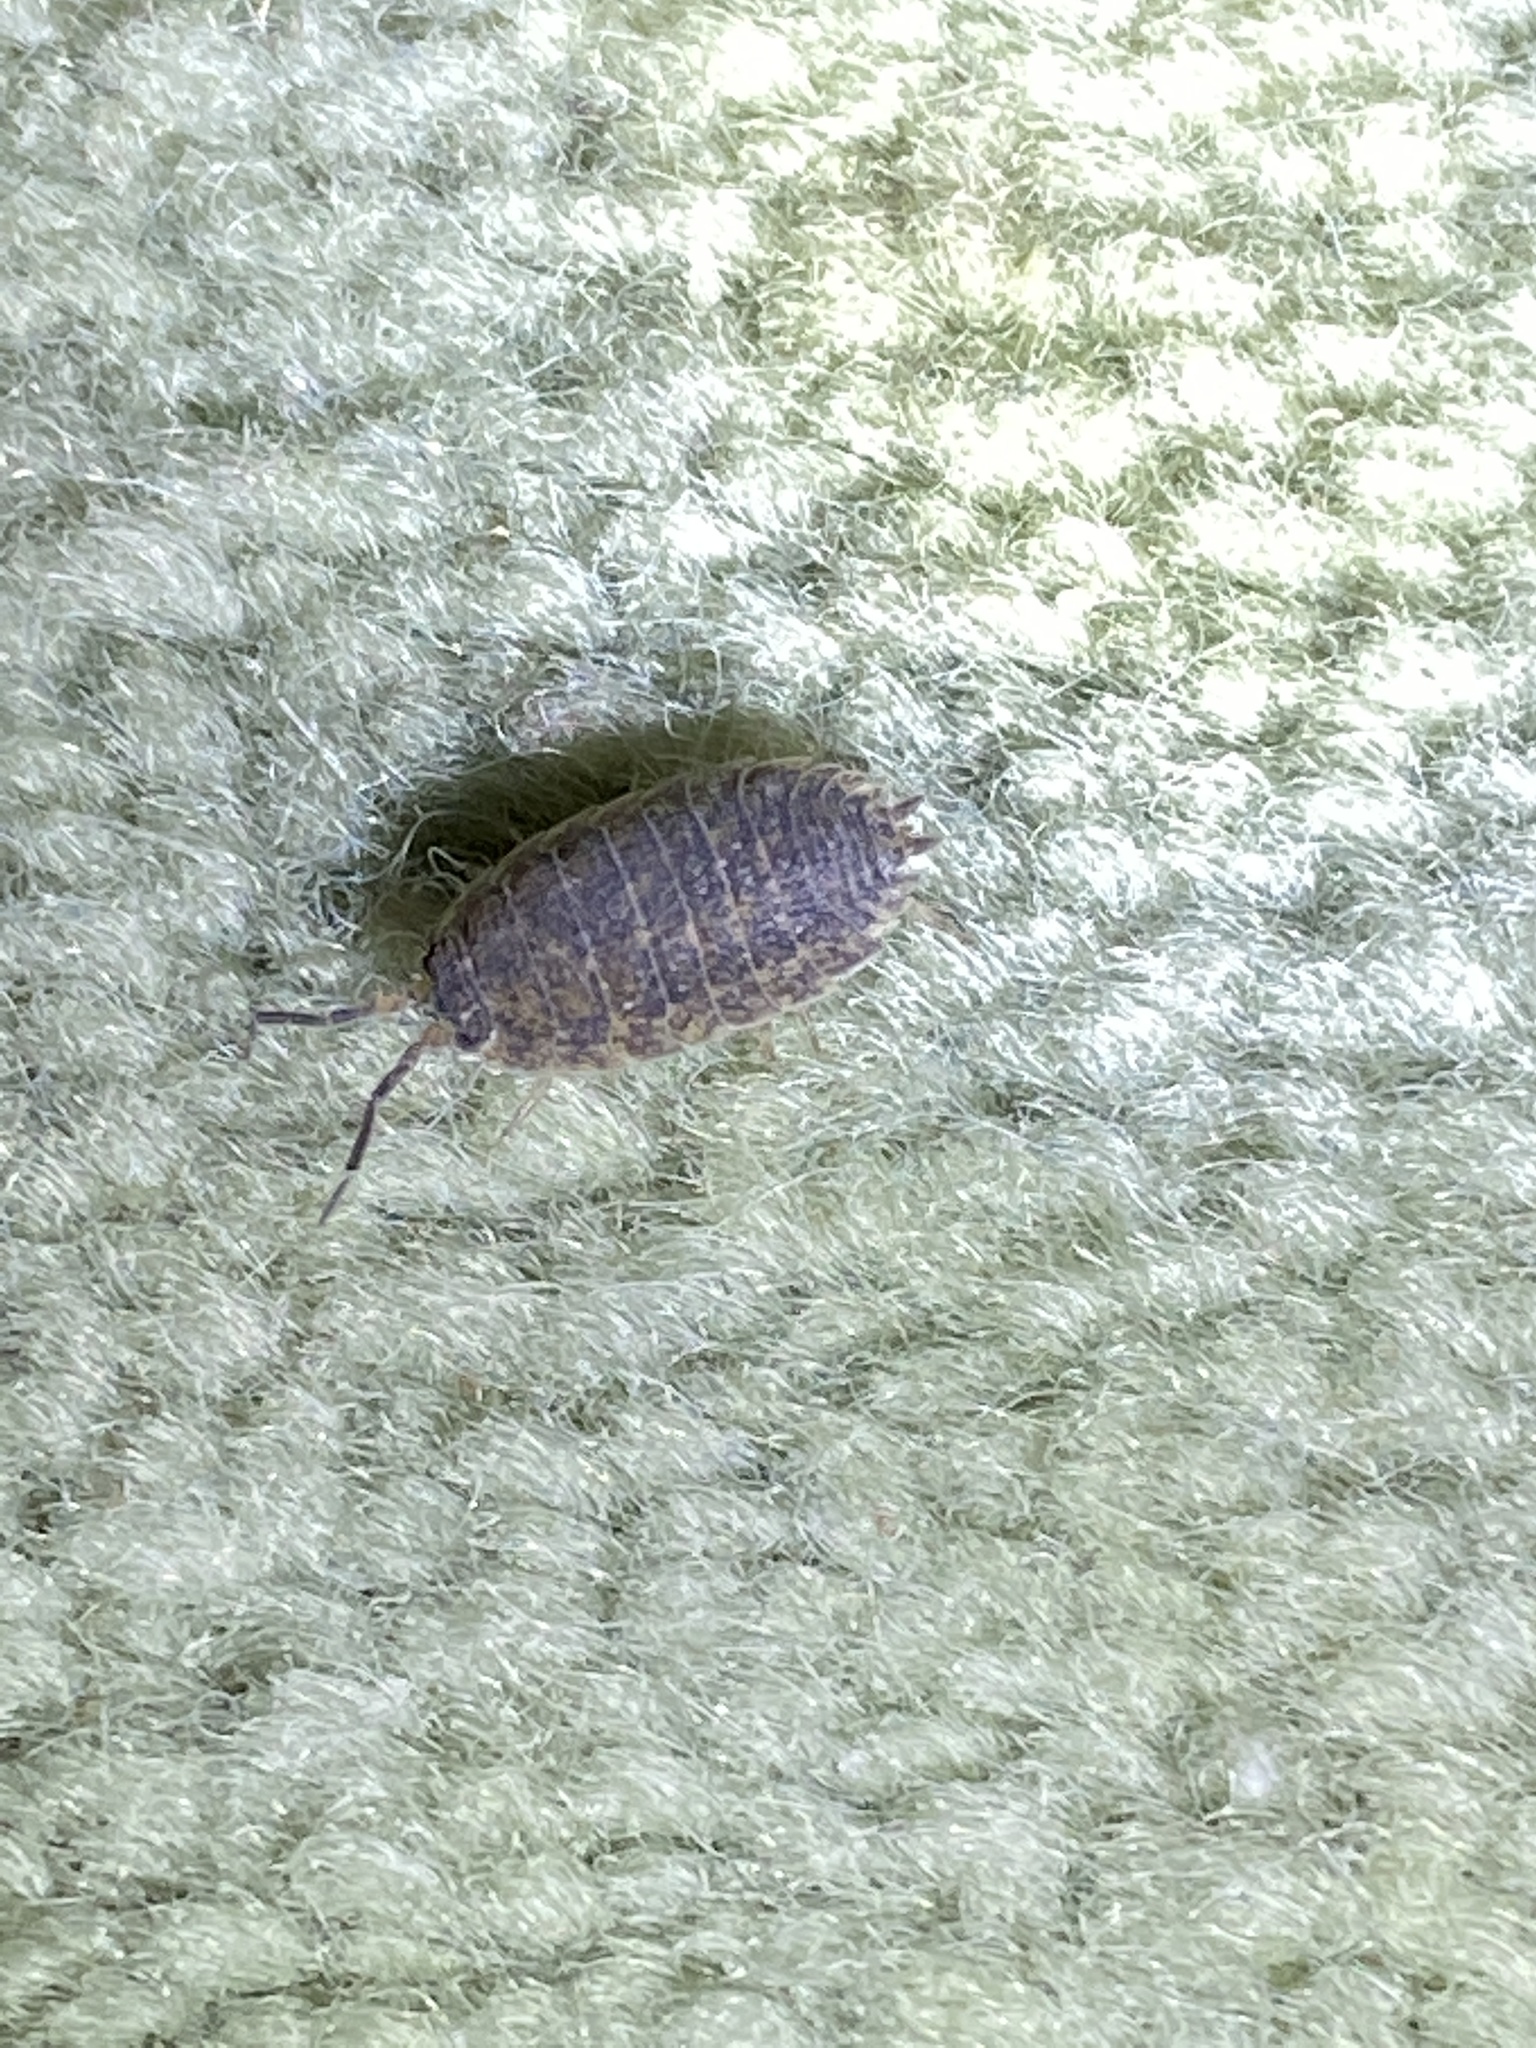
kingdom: Animalia
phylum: Arthropoda
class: Malacostraca
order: Isopoda
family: Porcellionidae
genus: Porcellio
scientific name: Porcellio scaber
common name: Common rough woodlouse
